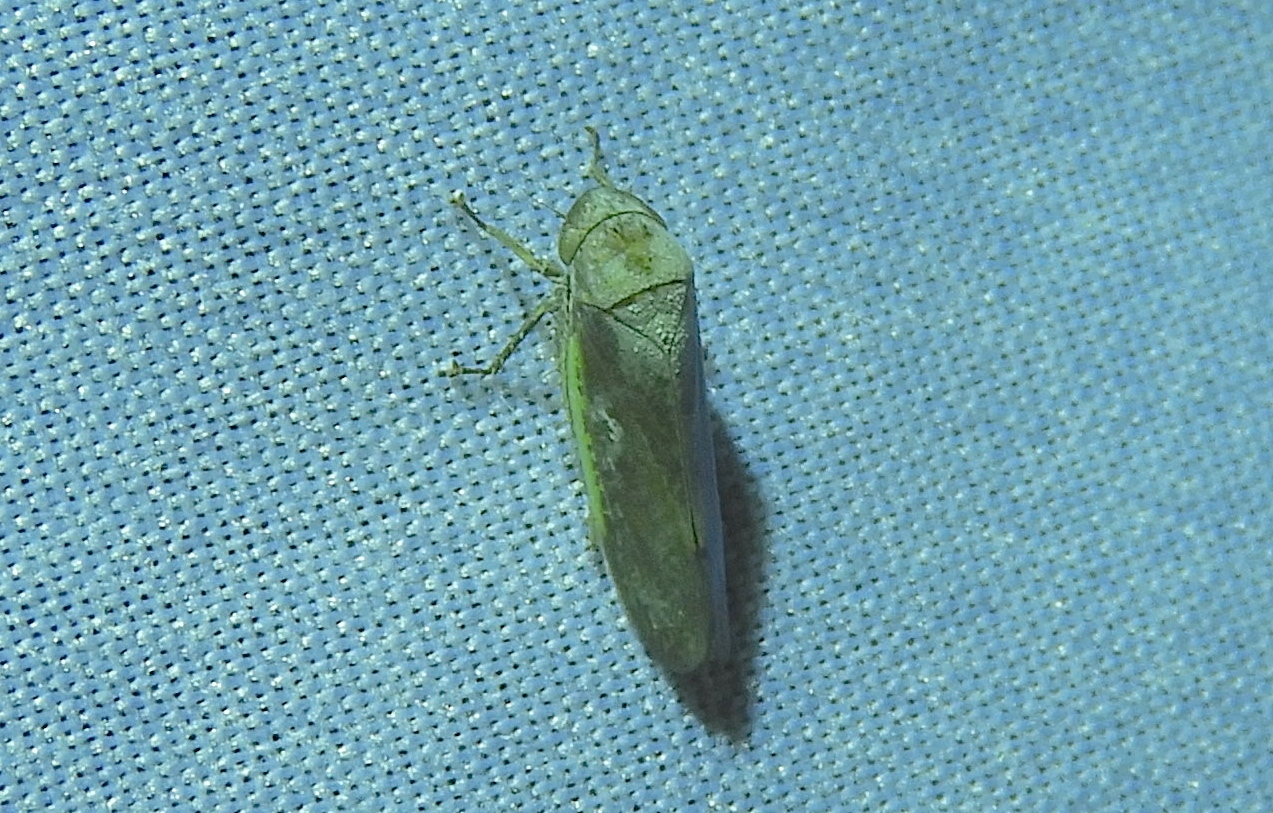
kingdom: Animalia
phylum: Arthropoda
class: Insecta
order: Hemiptera
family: Cicadellidae
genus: Hamana
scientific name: Hamana gelbata
